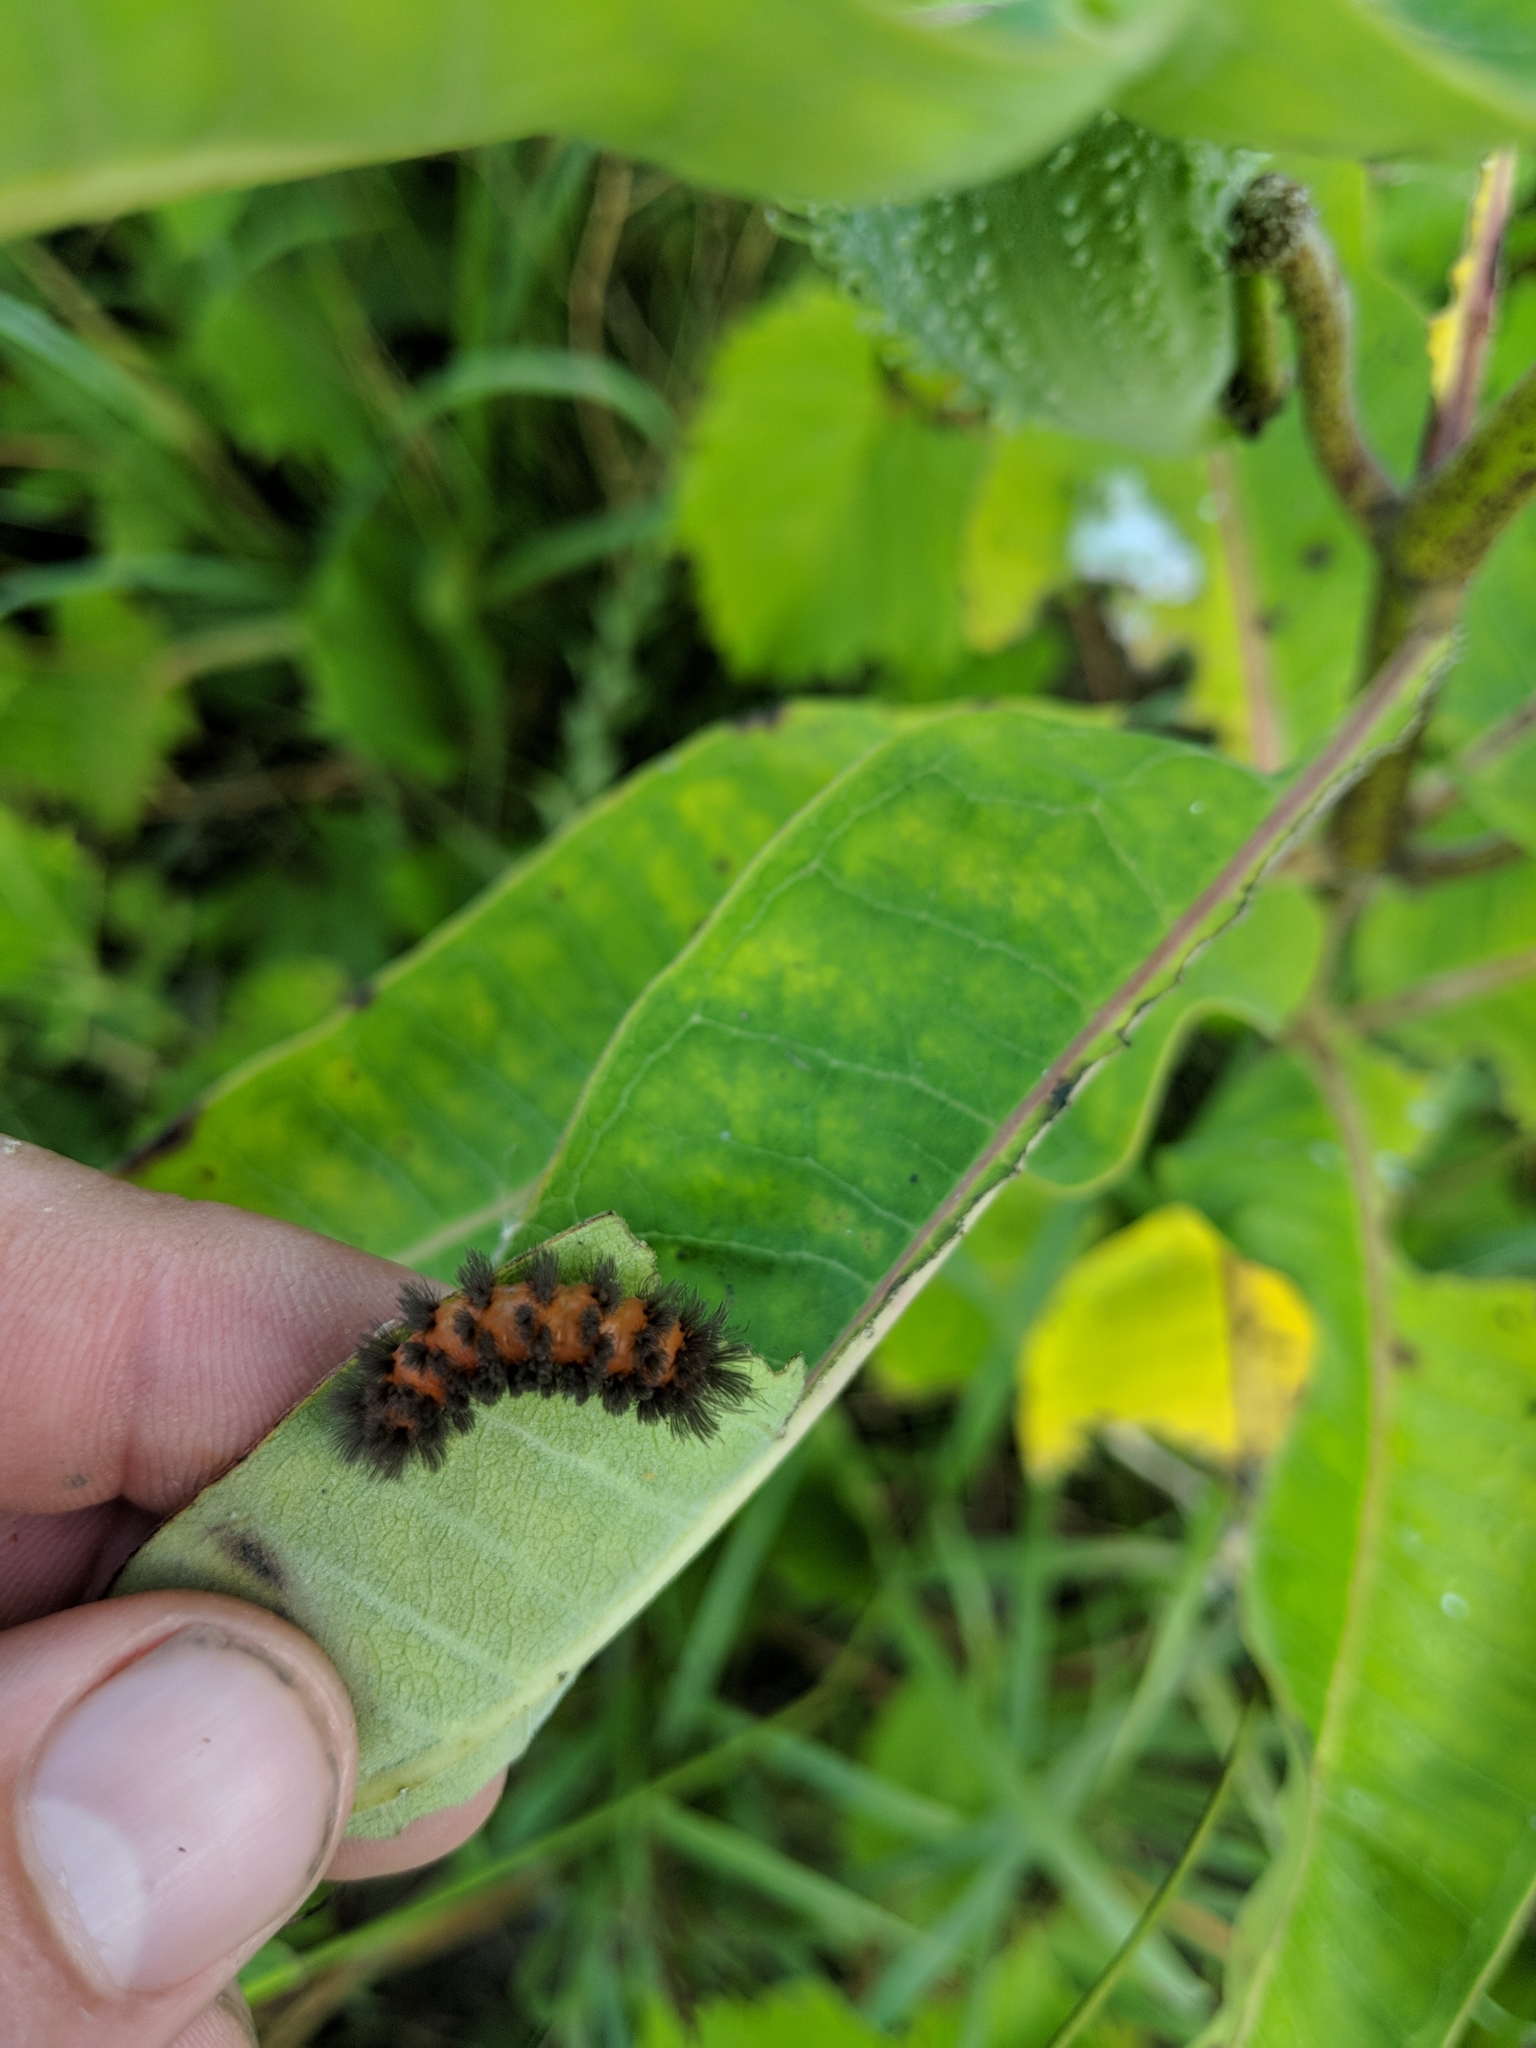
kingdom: Animalia
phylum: Arthropoda
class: Insecta
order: Lepidoptera
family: Erebidae
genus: Cycnia
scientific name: Cycnia collaris
